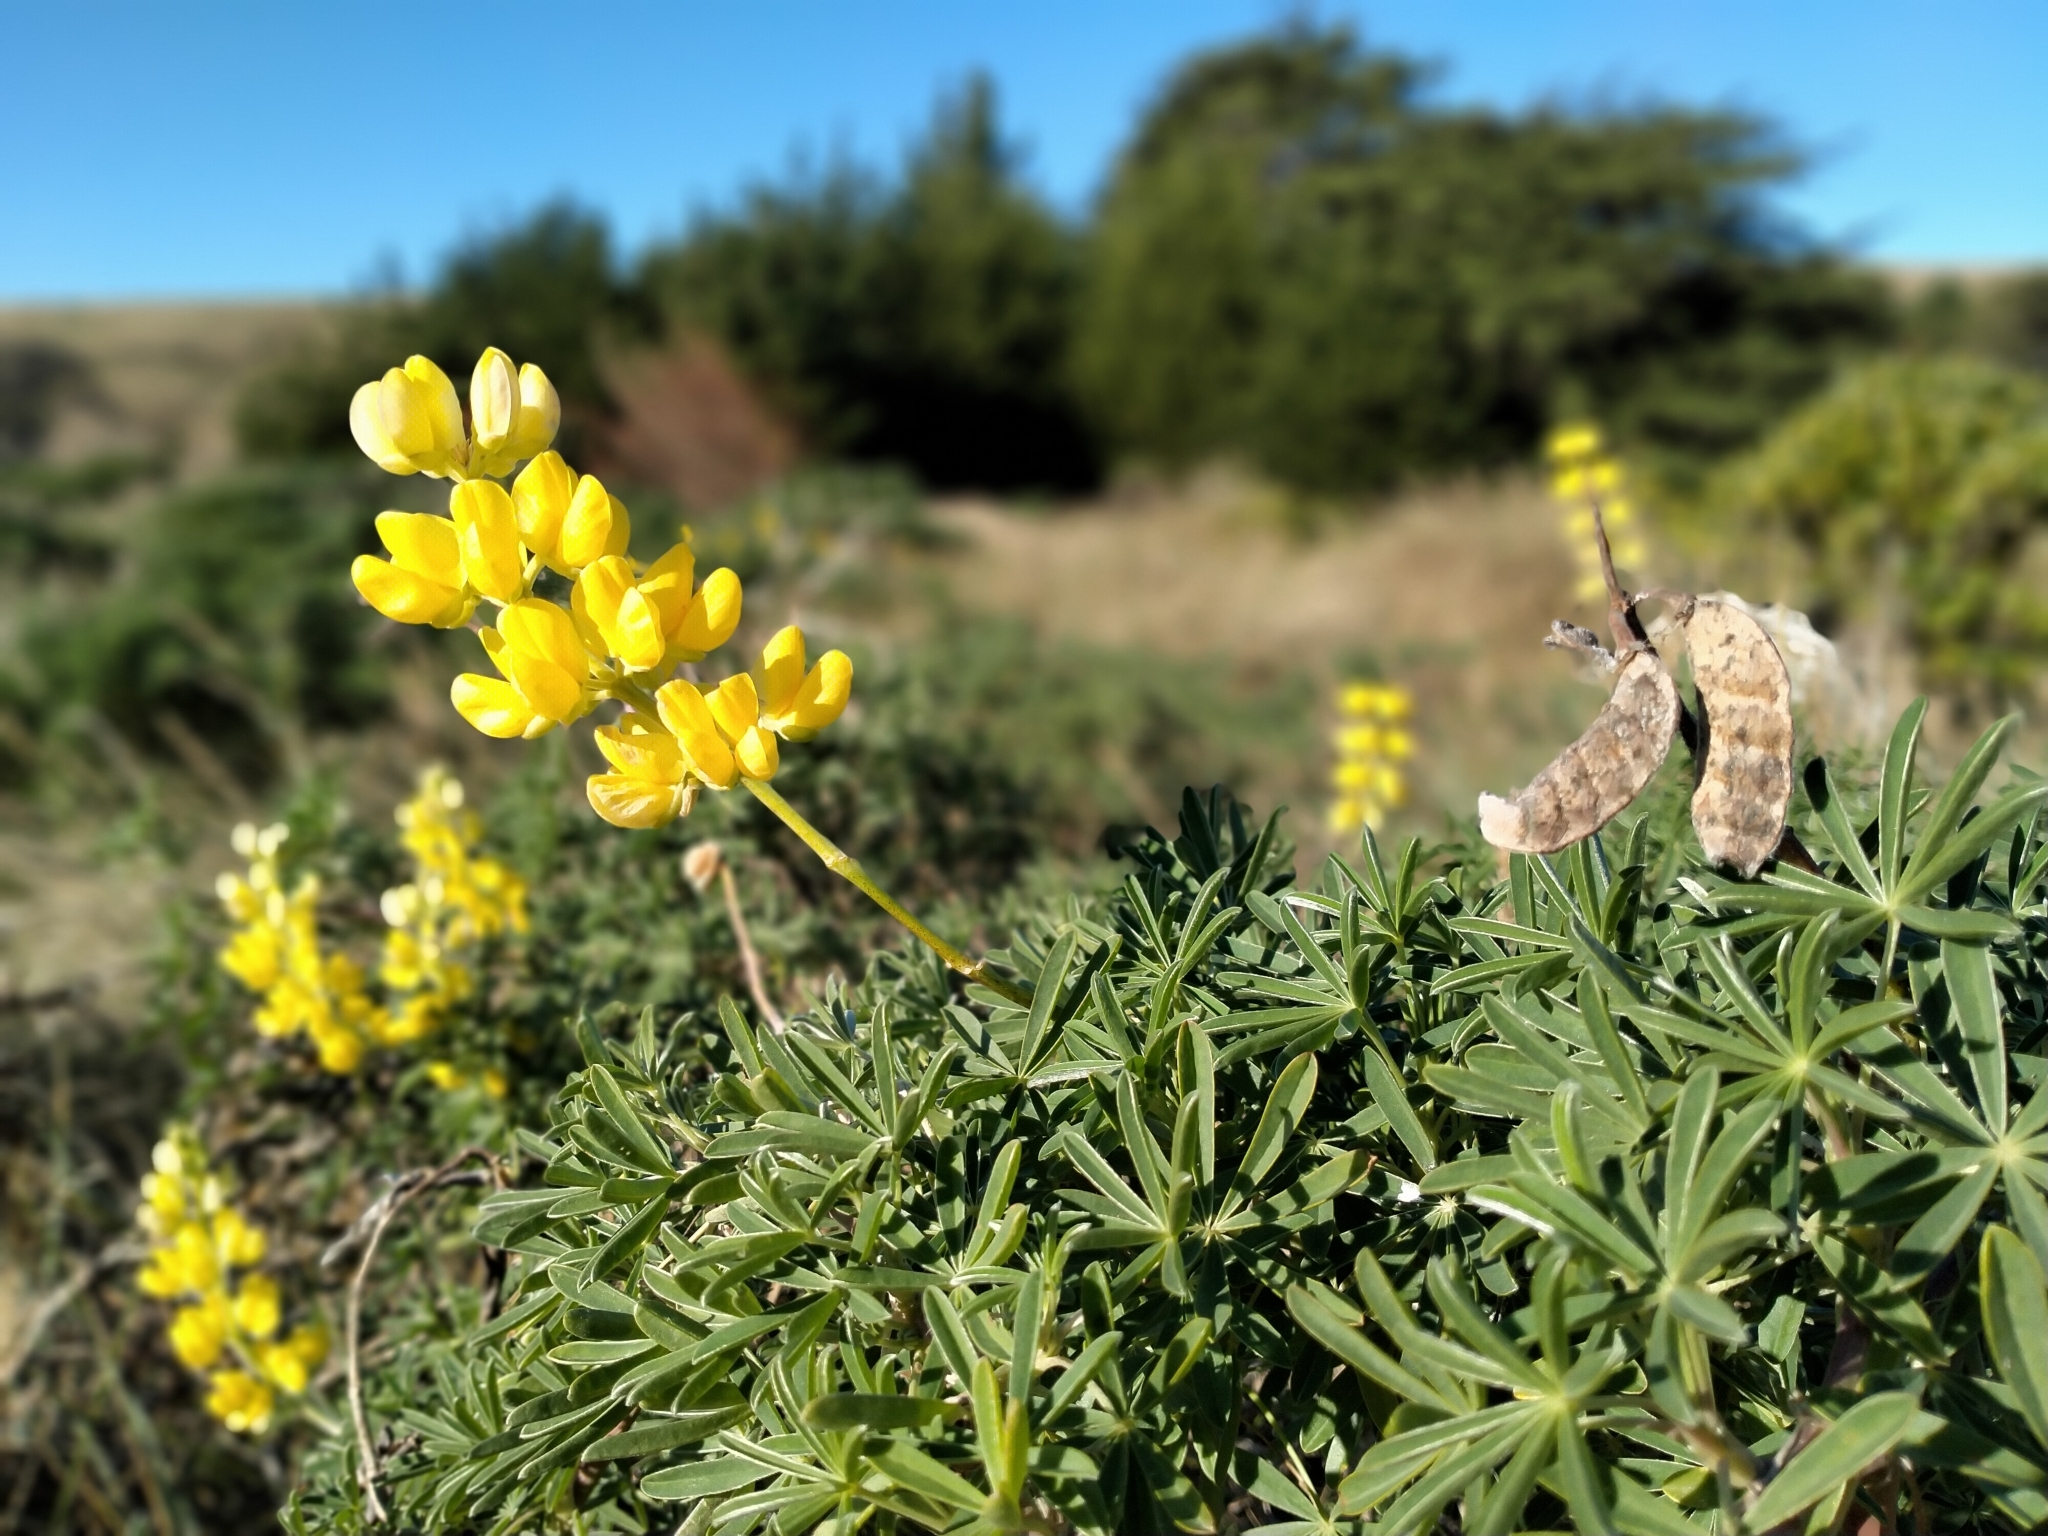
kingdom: Plantae
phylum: Tracheophyta
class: Magnoliopsida
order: Fabales
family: Fabaceae
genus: Lupinus
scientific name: Lupinus arboreus
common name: Yellow bush lupine
